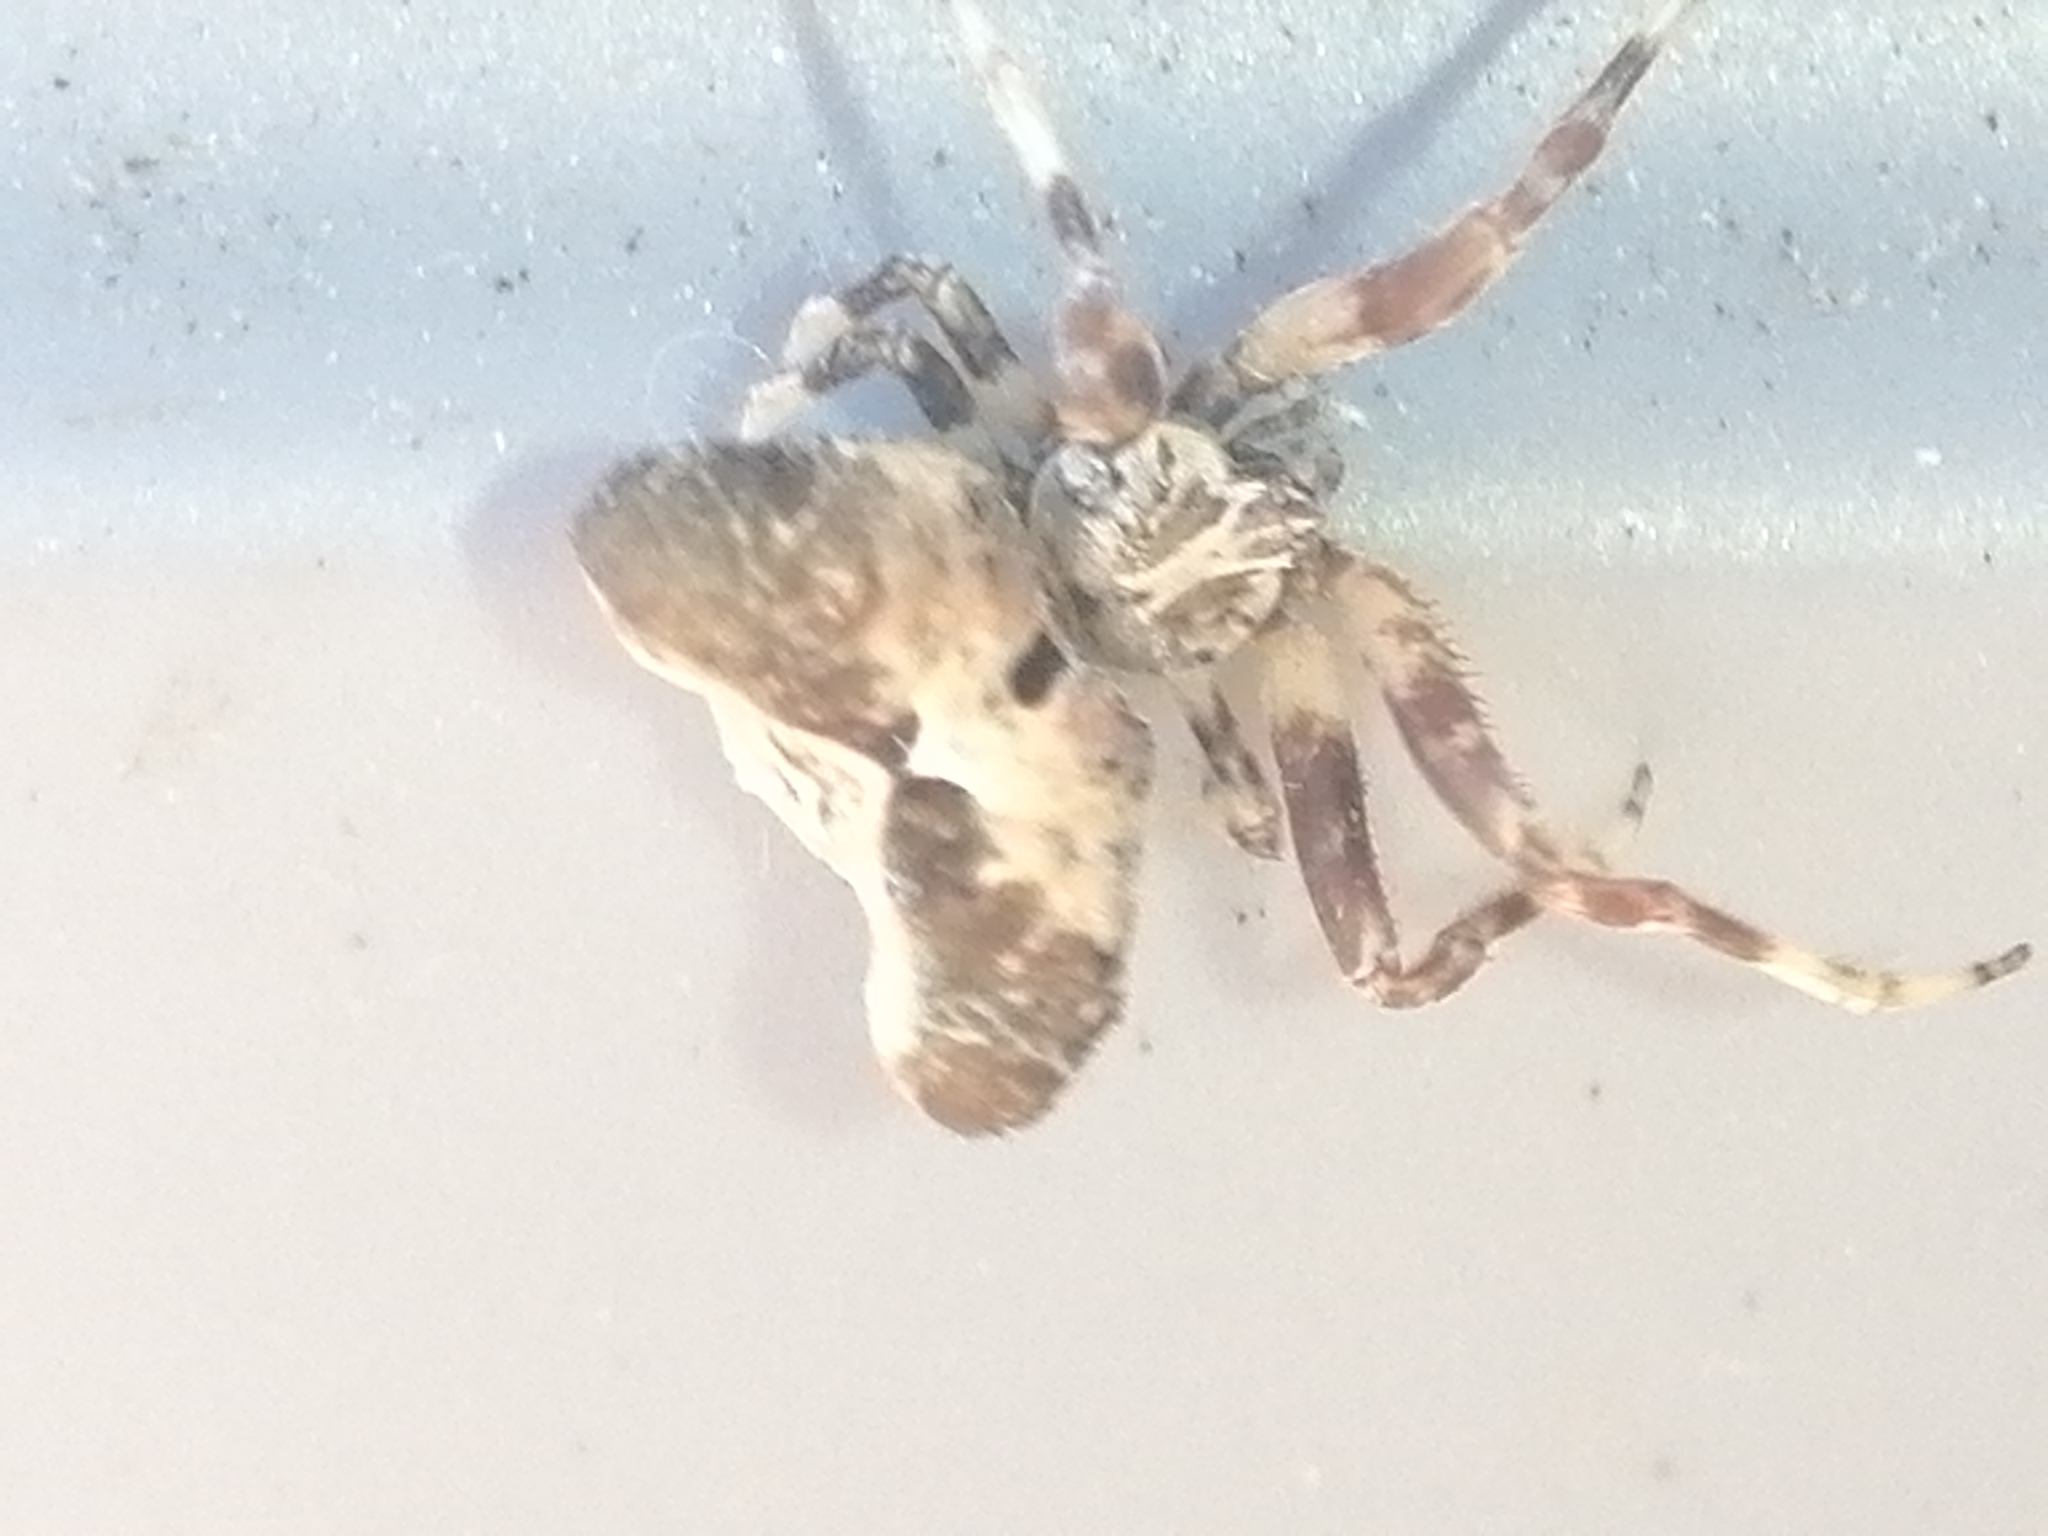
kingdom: Animalia
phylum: Arthropoda
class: Arachnida
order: Araneae
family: Araneidae
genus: Celaenia
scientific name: Celaenia olivacea
